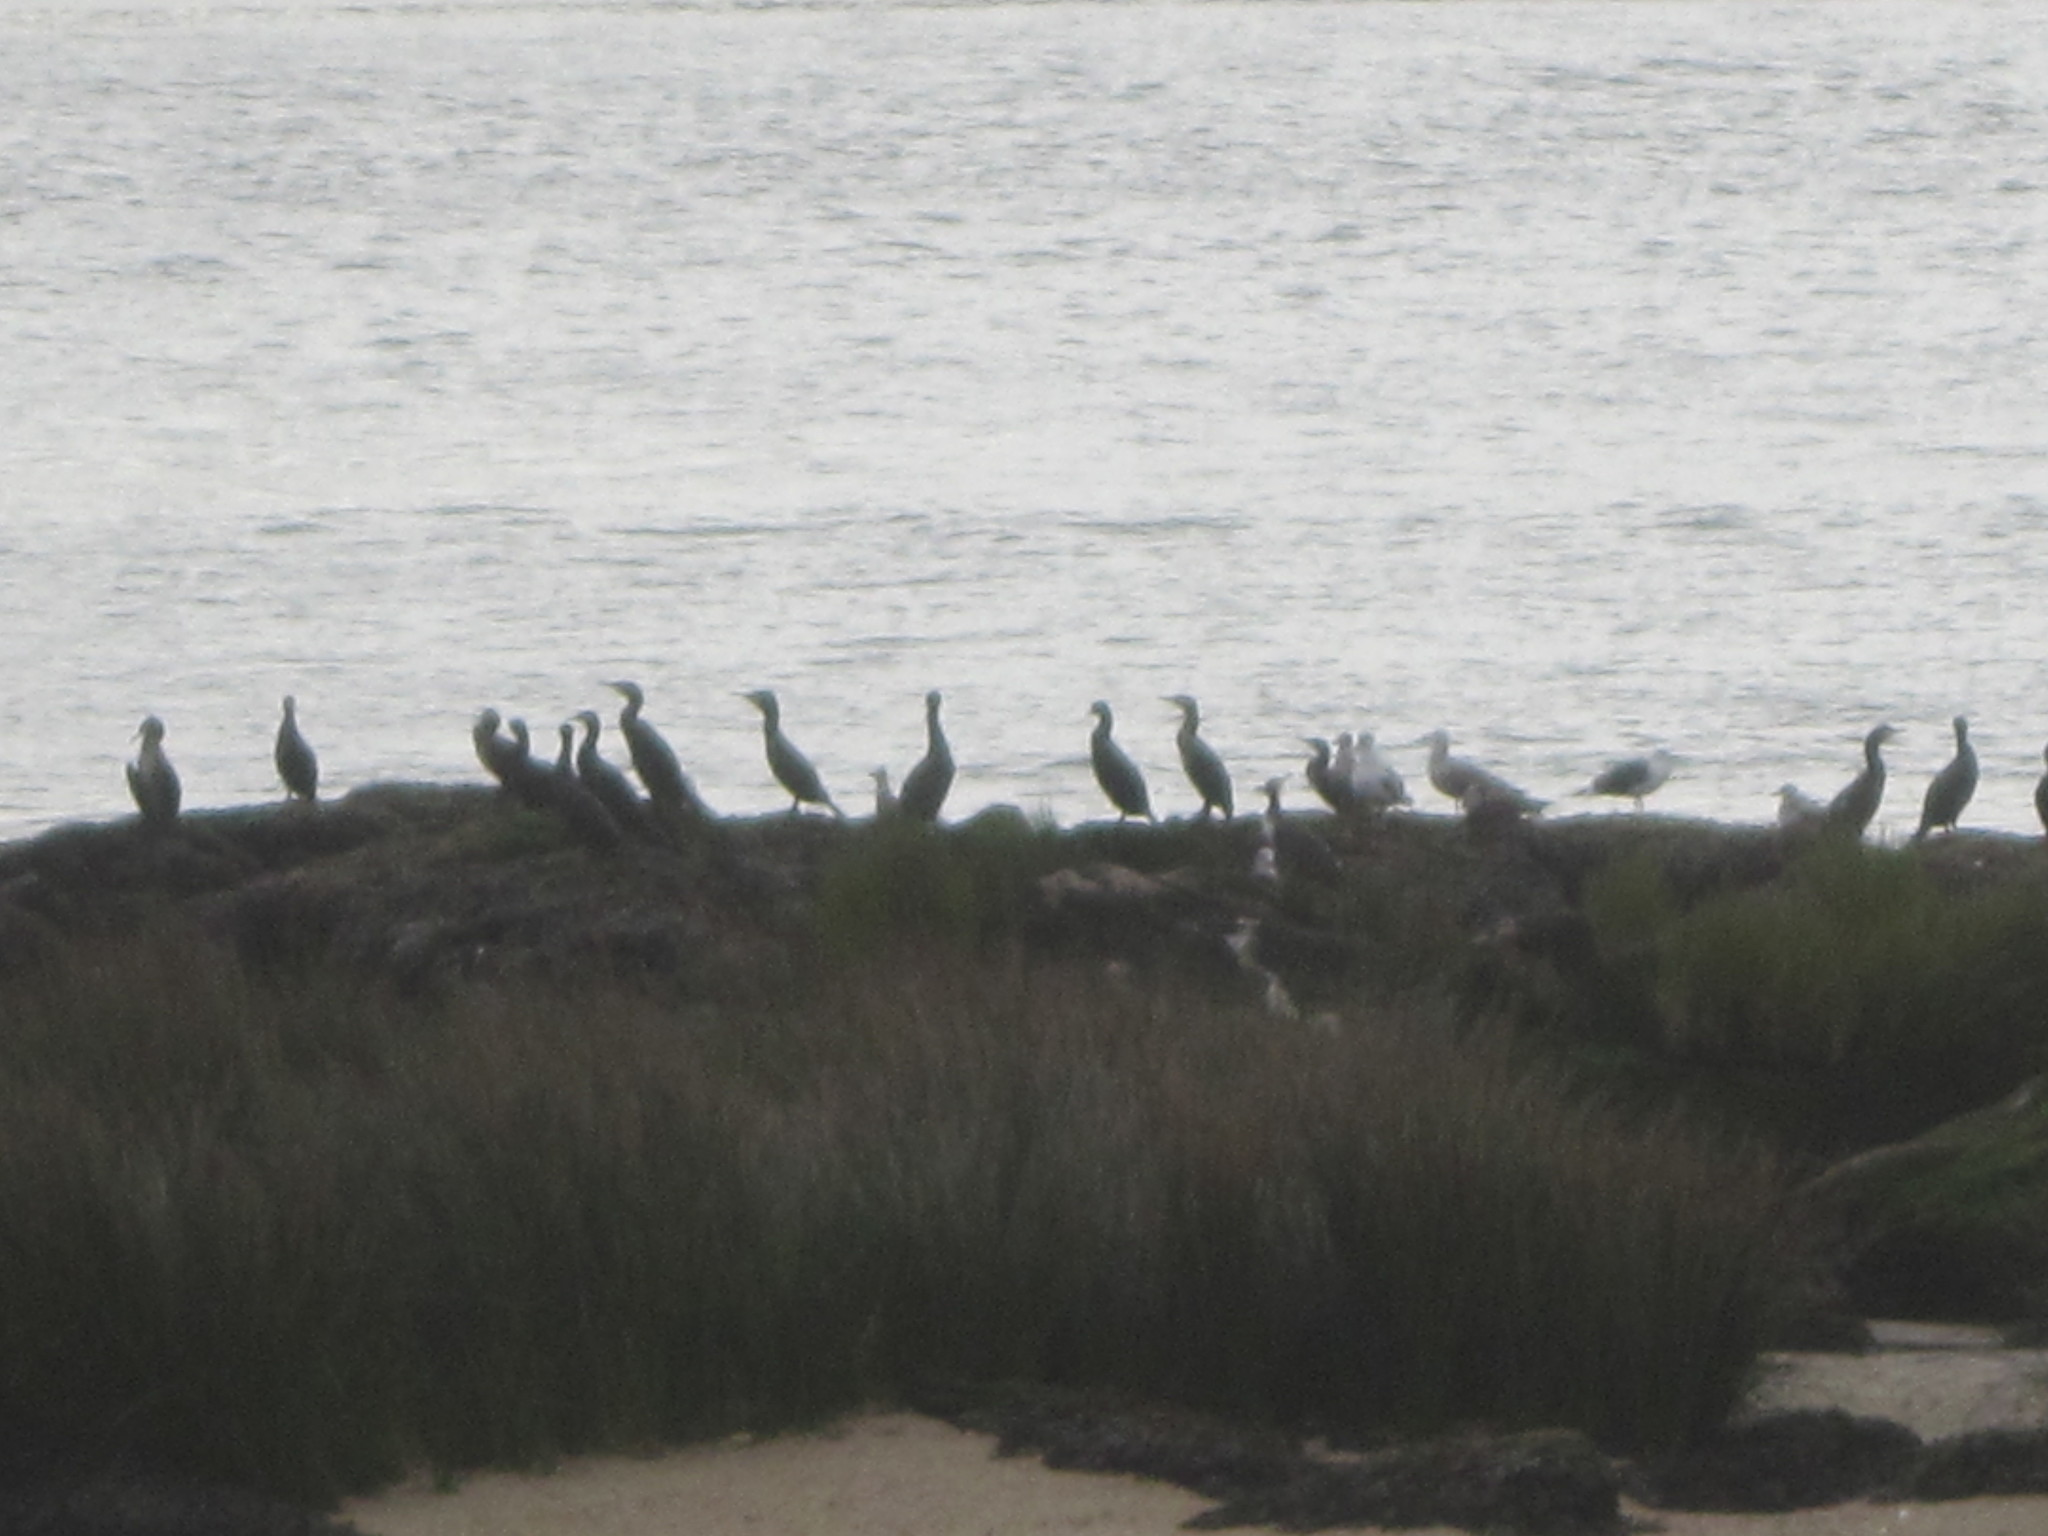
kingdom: Animalia
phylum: Chordata
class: Aves
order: Suliformes
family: Phalacrocoracidae
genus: Phalacrocorax
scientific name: Phalacrocorax carbo
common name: Great cormorant
